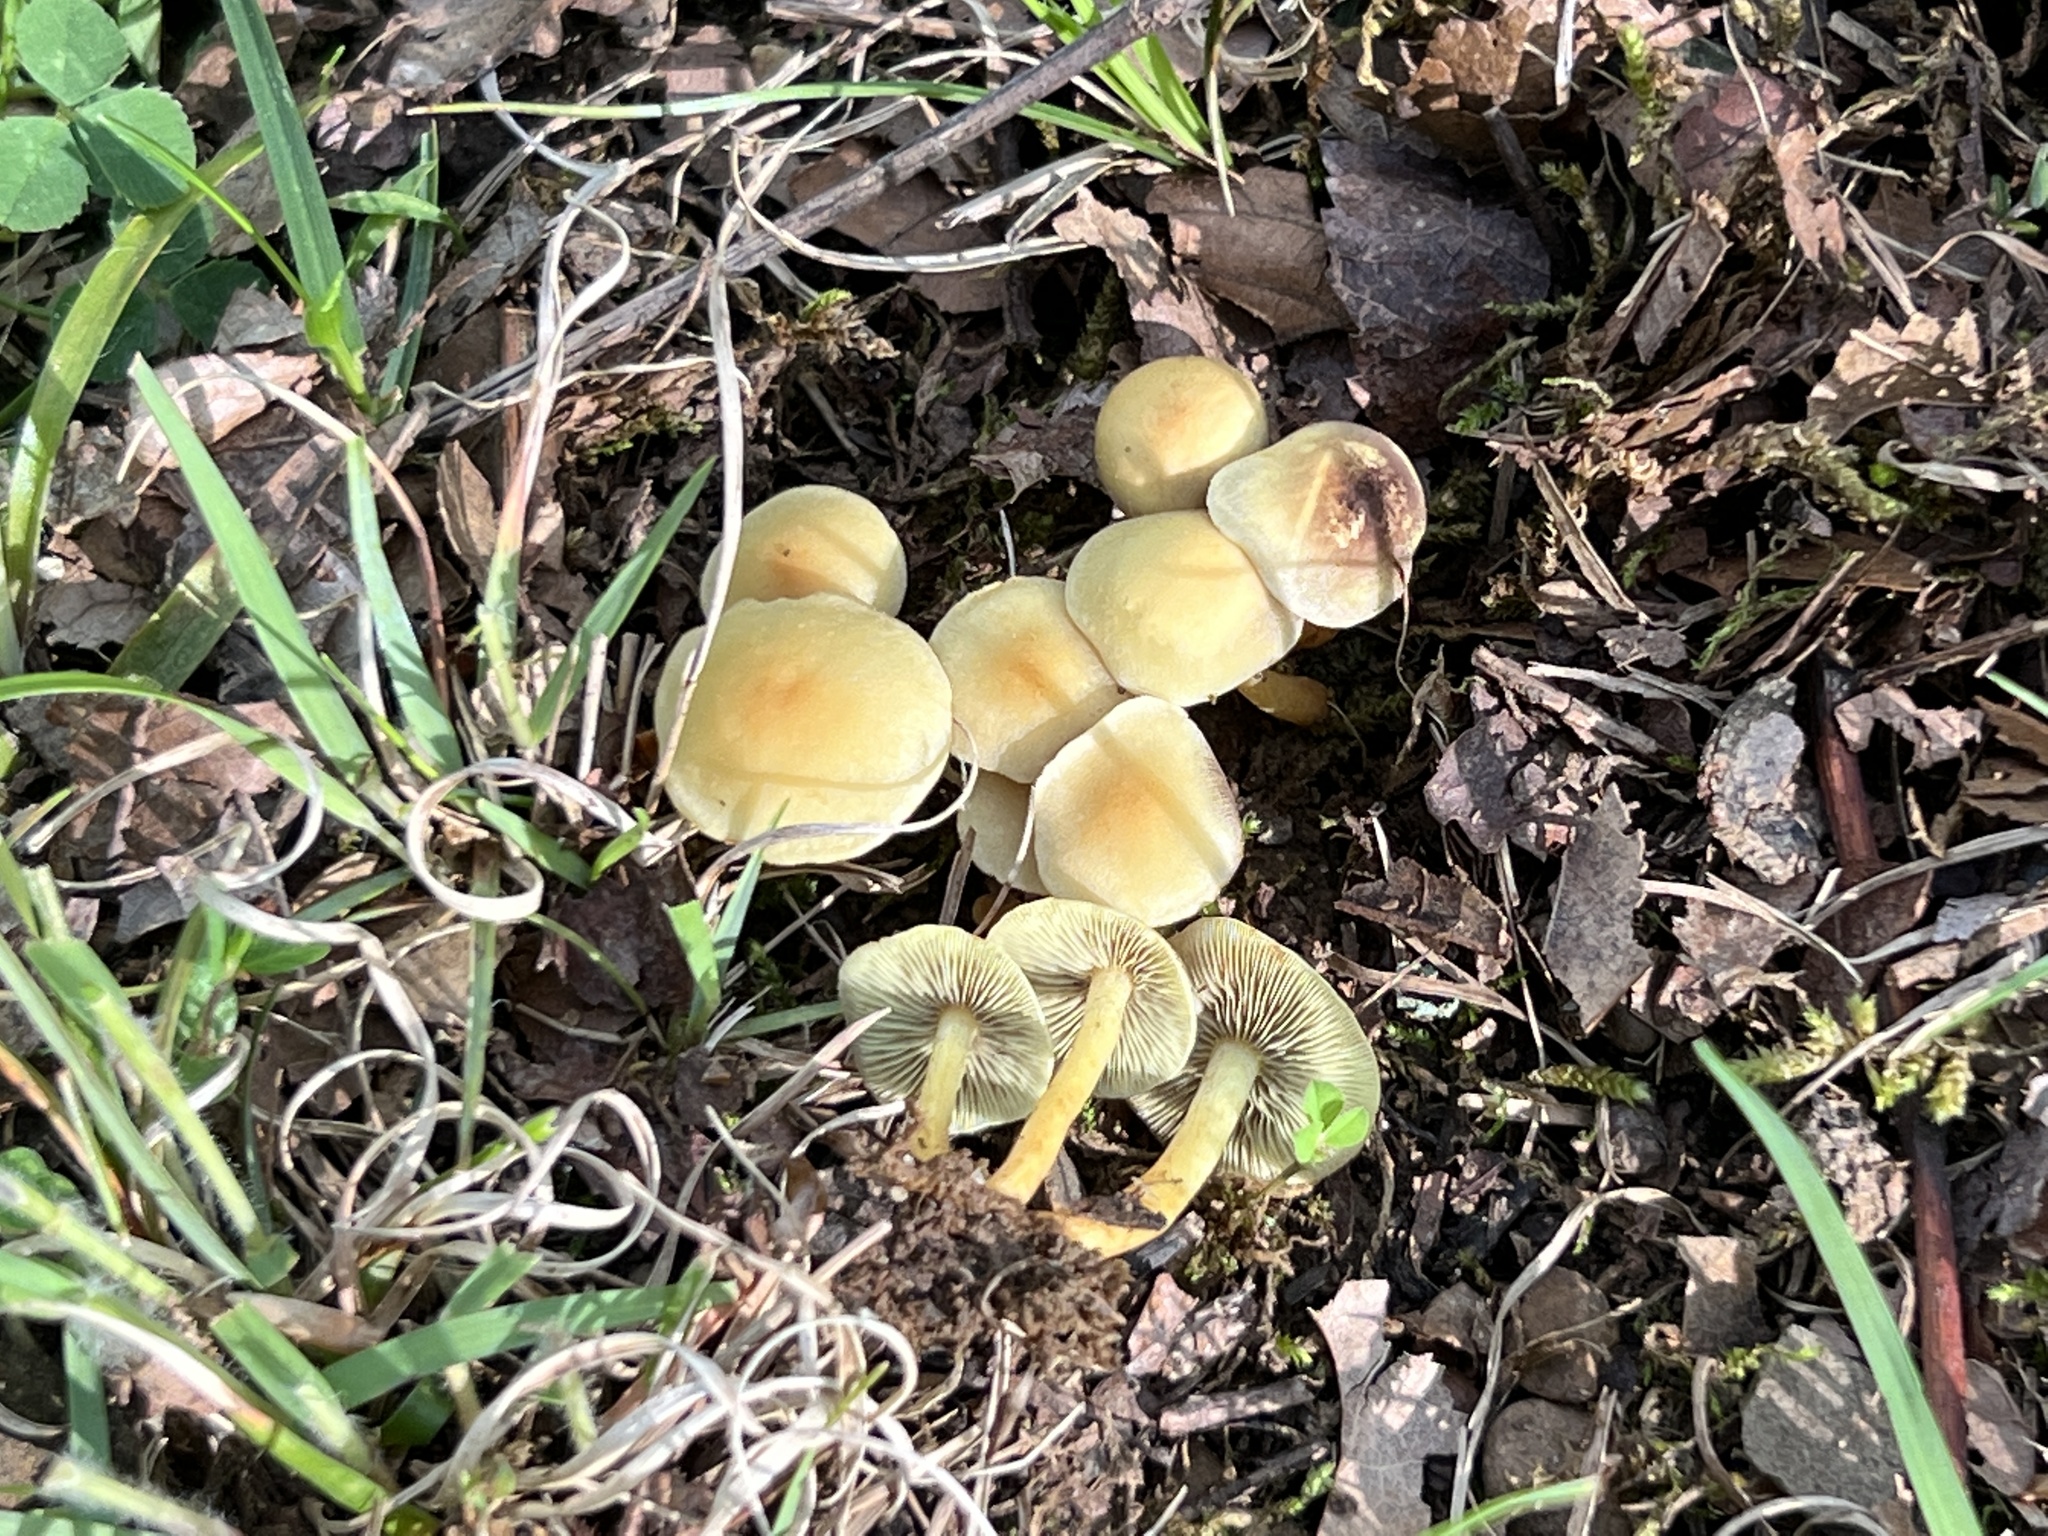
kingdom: Fungi
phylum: Basidiomycota
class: Agaricomycetes
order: Agaricales
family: Strophariaceae
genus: Hypholoma
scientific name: Hypholoma fasciculare
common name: Sulphur tuft
